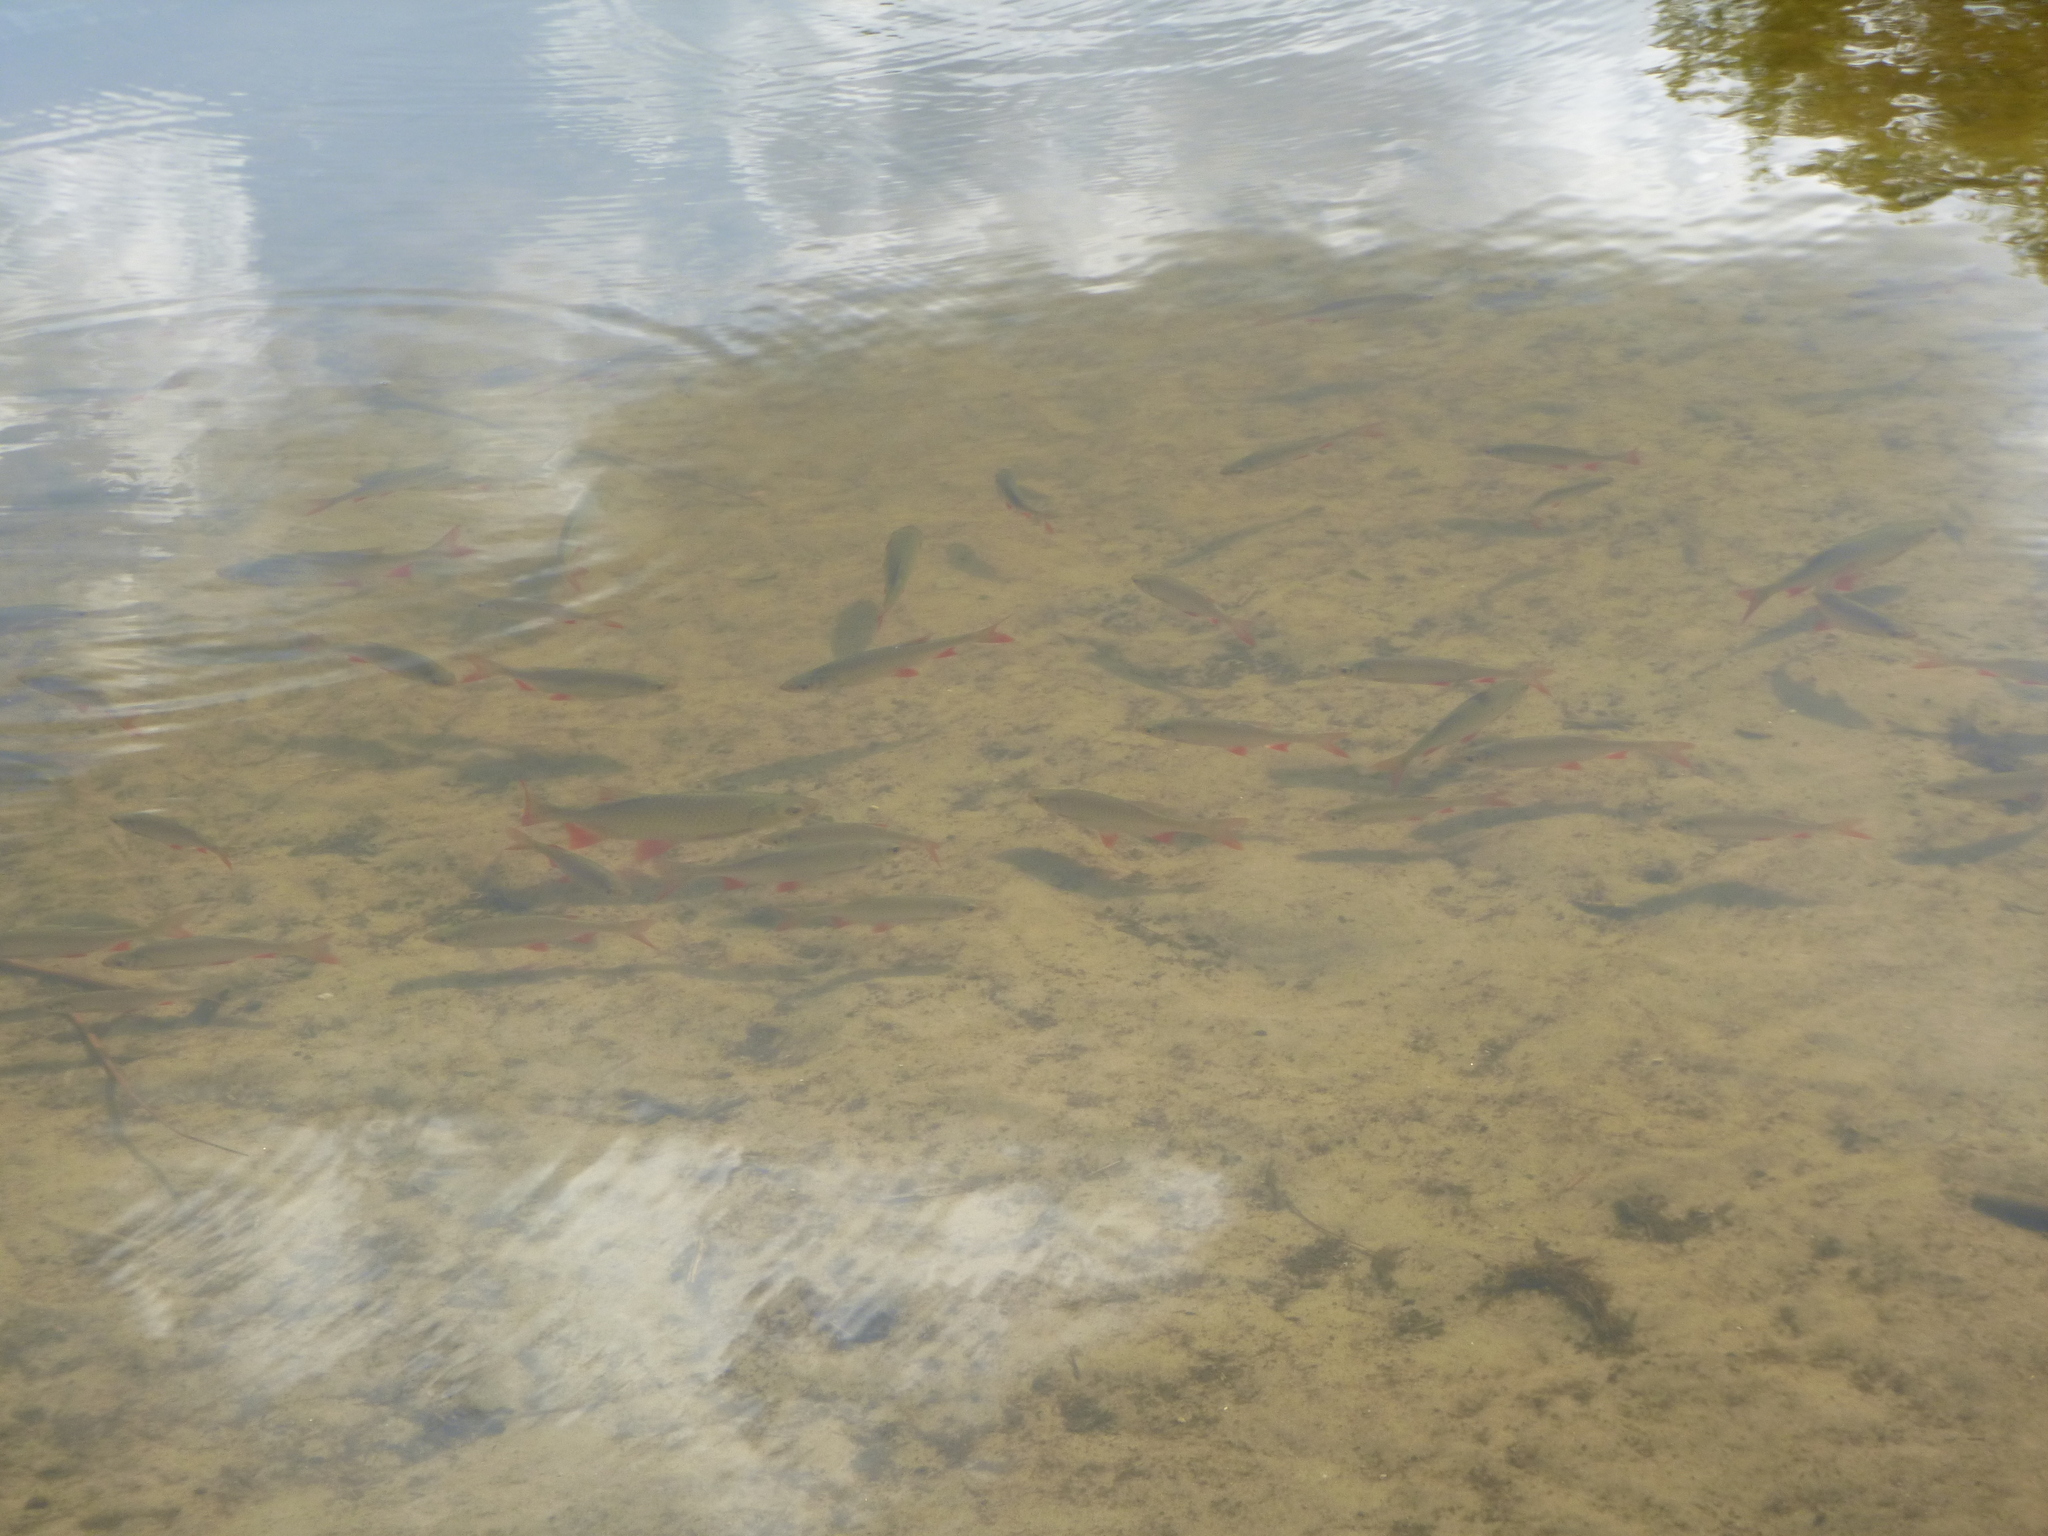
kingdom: Animalia
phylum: Chordata
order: Cypriniformes
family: Cyprinidae
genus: Scardinius
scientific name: Scardinius erythrophthalmus
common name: Rudd
